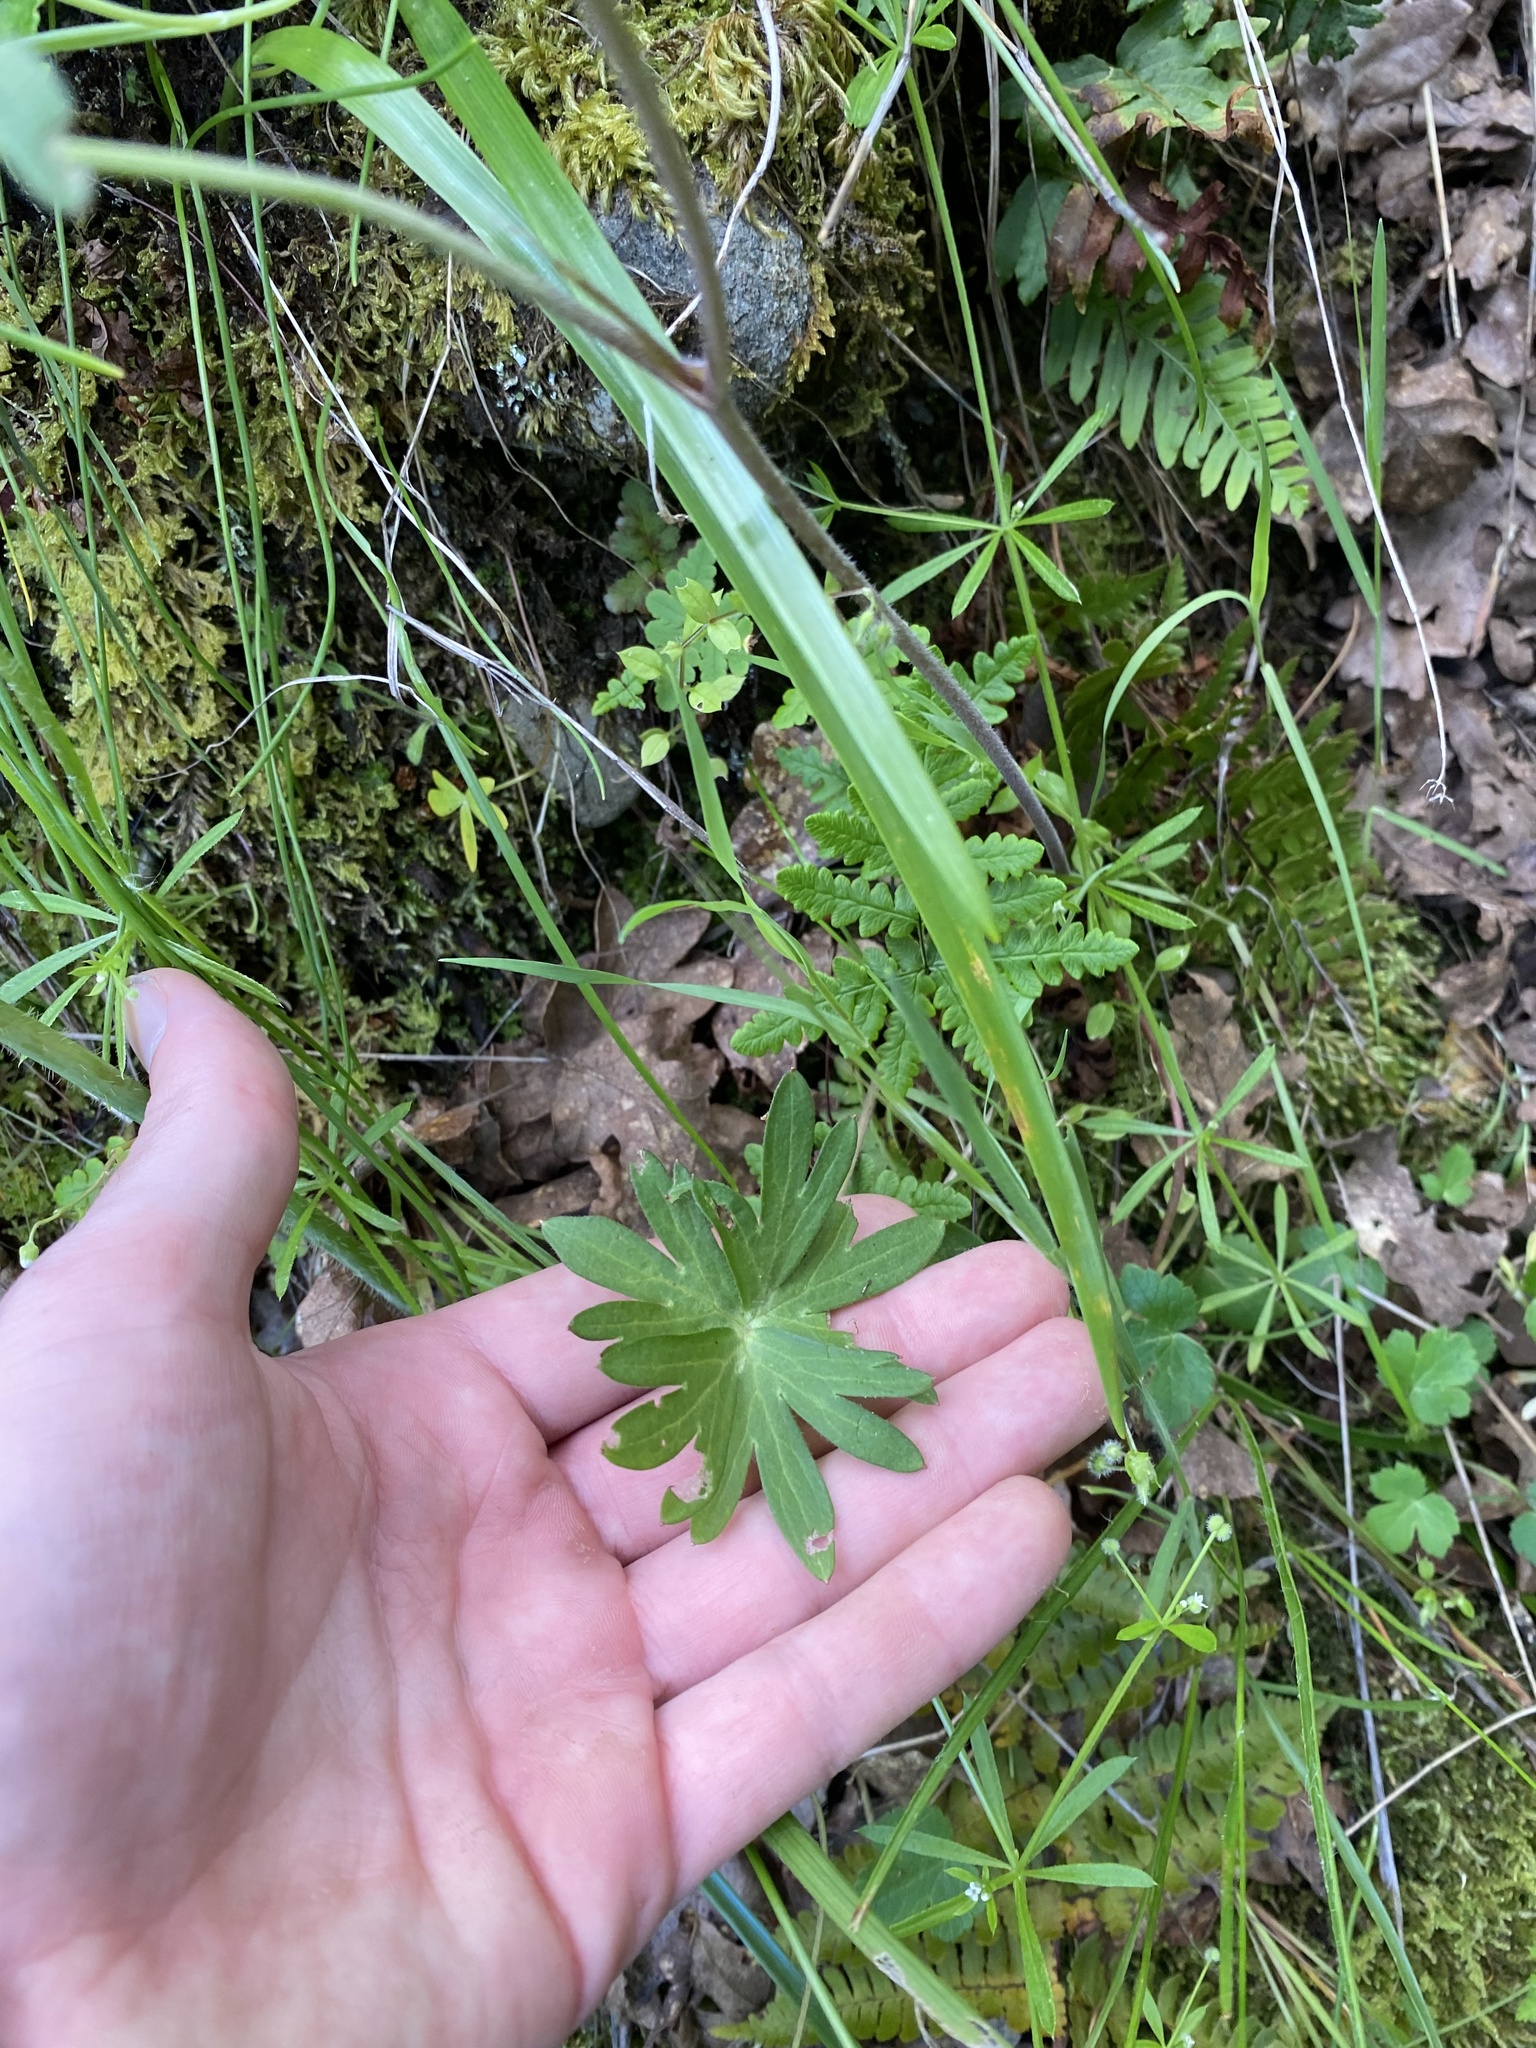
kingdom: Plantae
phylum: Tracheophyta
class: Magnoliopsida
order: Ranunculales
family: Ranunculaceae
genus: Delphinium
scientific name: Delphinium menziesii
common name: Menzies's larkspur
